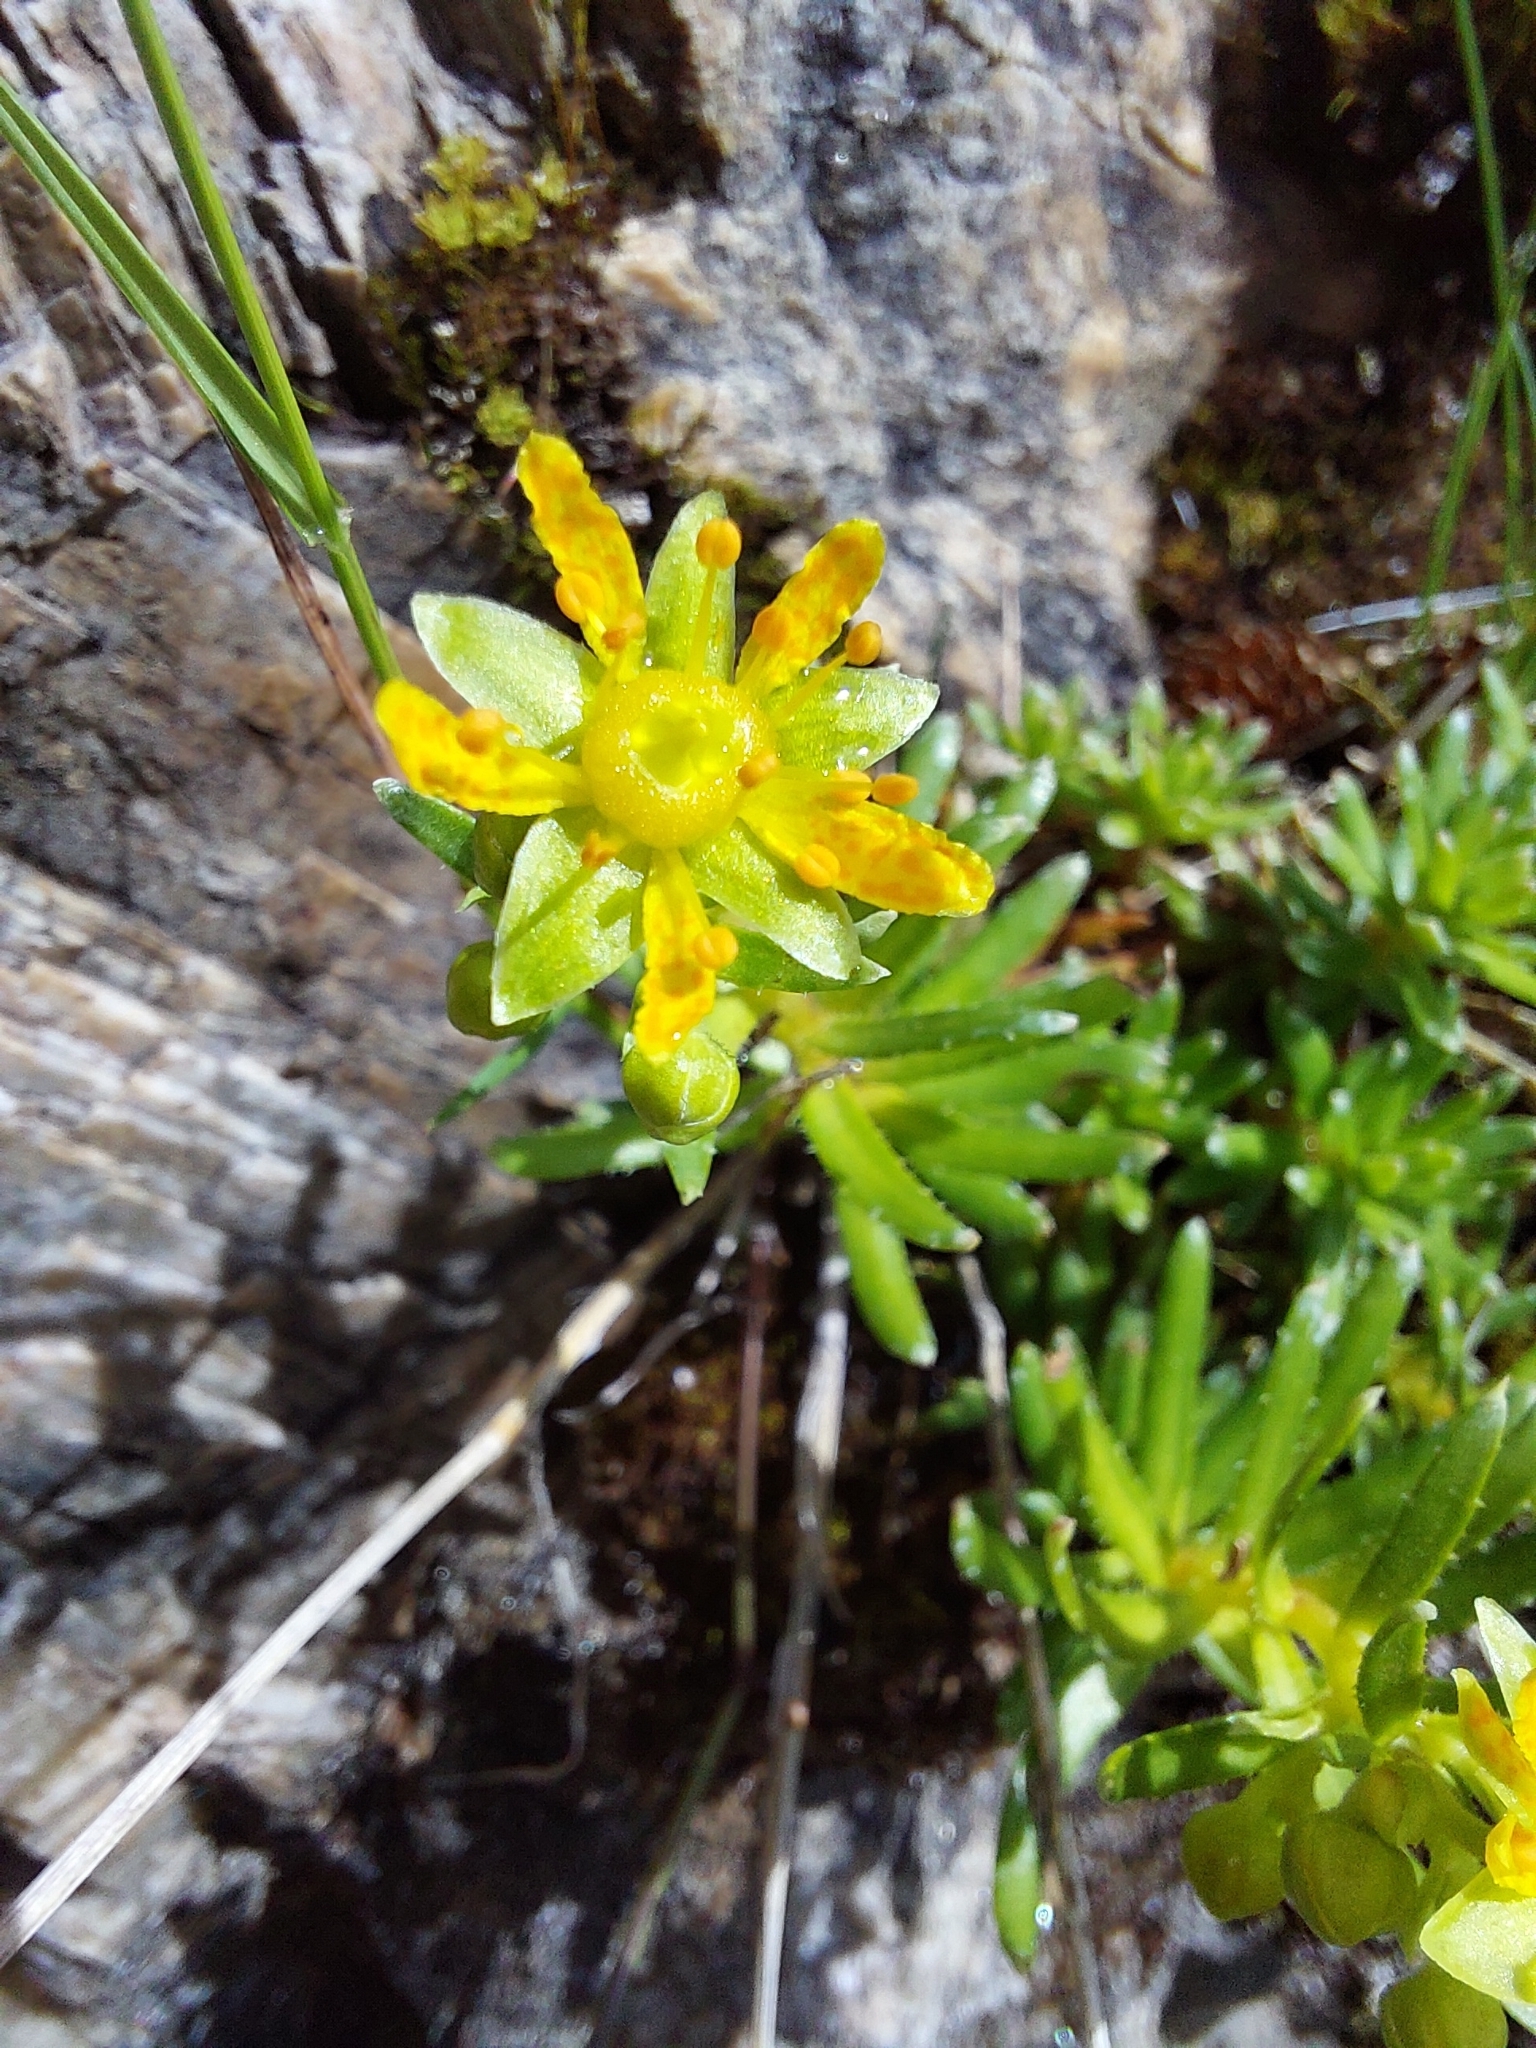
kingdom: Plantae
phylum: Tracheophyta
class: Magnoliopsida
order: Saxifragales
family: Saxifragaceae
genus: Saxifraga
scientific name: Saxifraga aizoides
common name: Yellow mountain saxifrage
